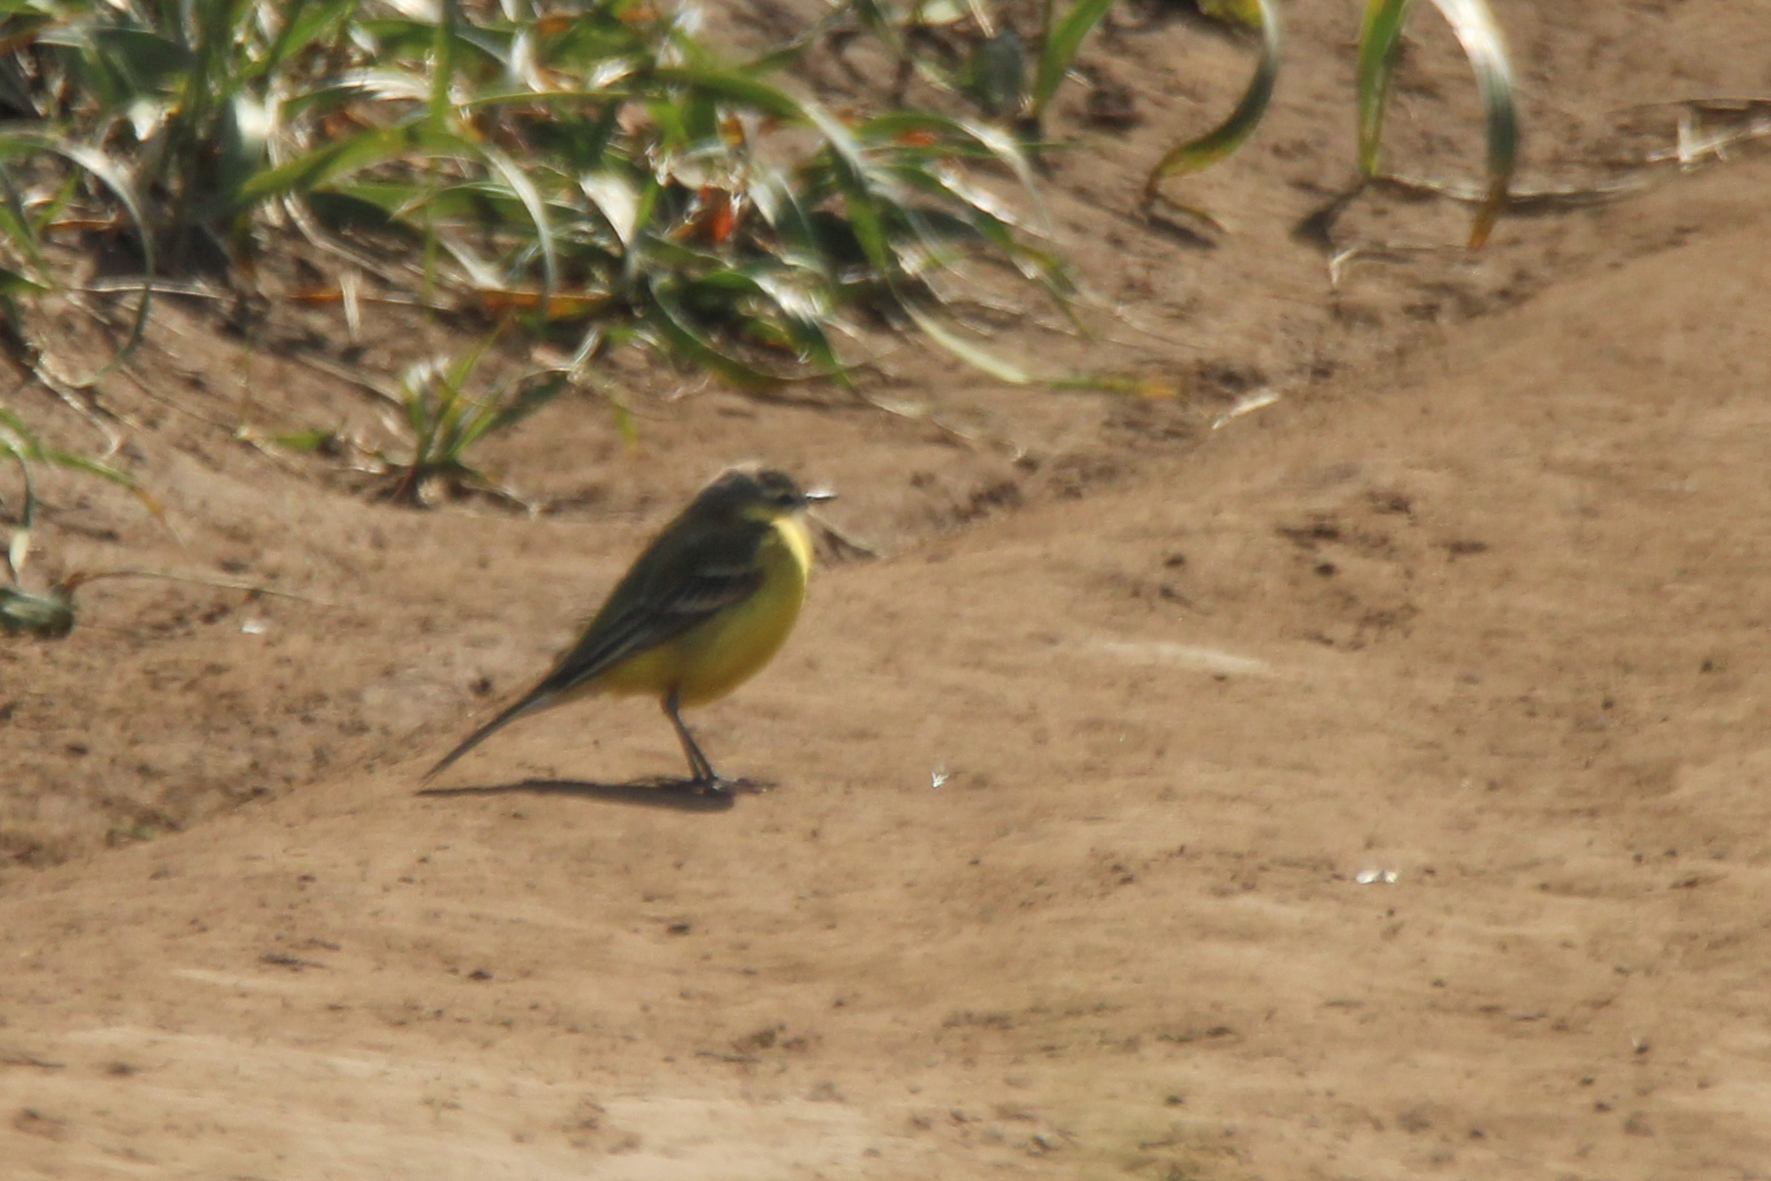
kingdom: Animalia
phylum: Chordata
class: Aves
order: Passeriformes
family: Motacillidae
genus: Motacilla
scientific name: Motacilla tschutschensis
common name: Eastern yellow wagtail
